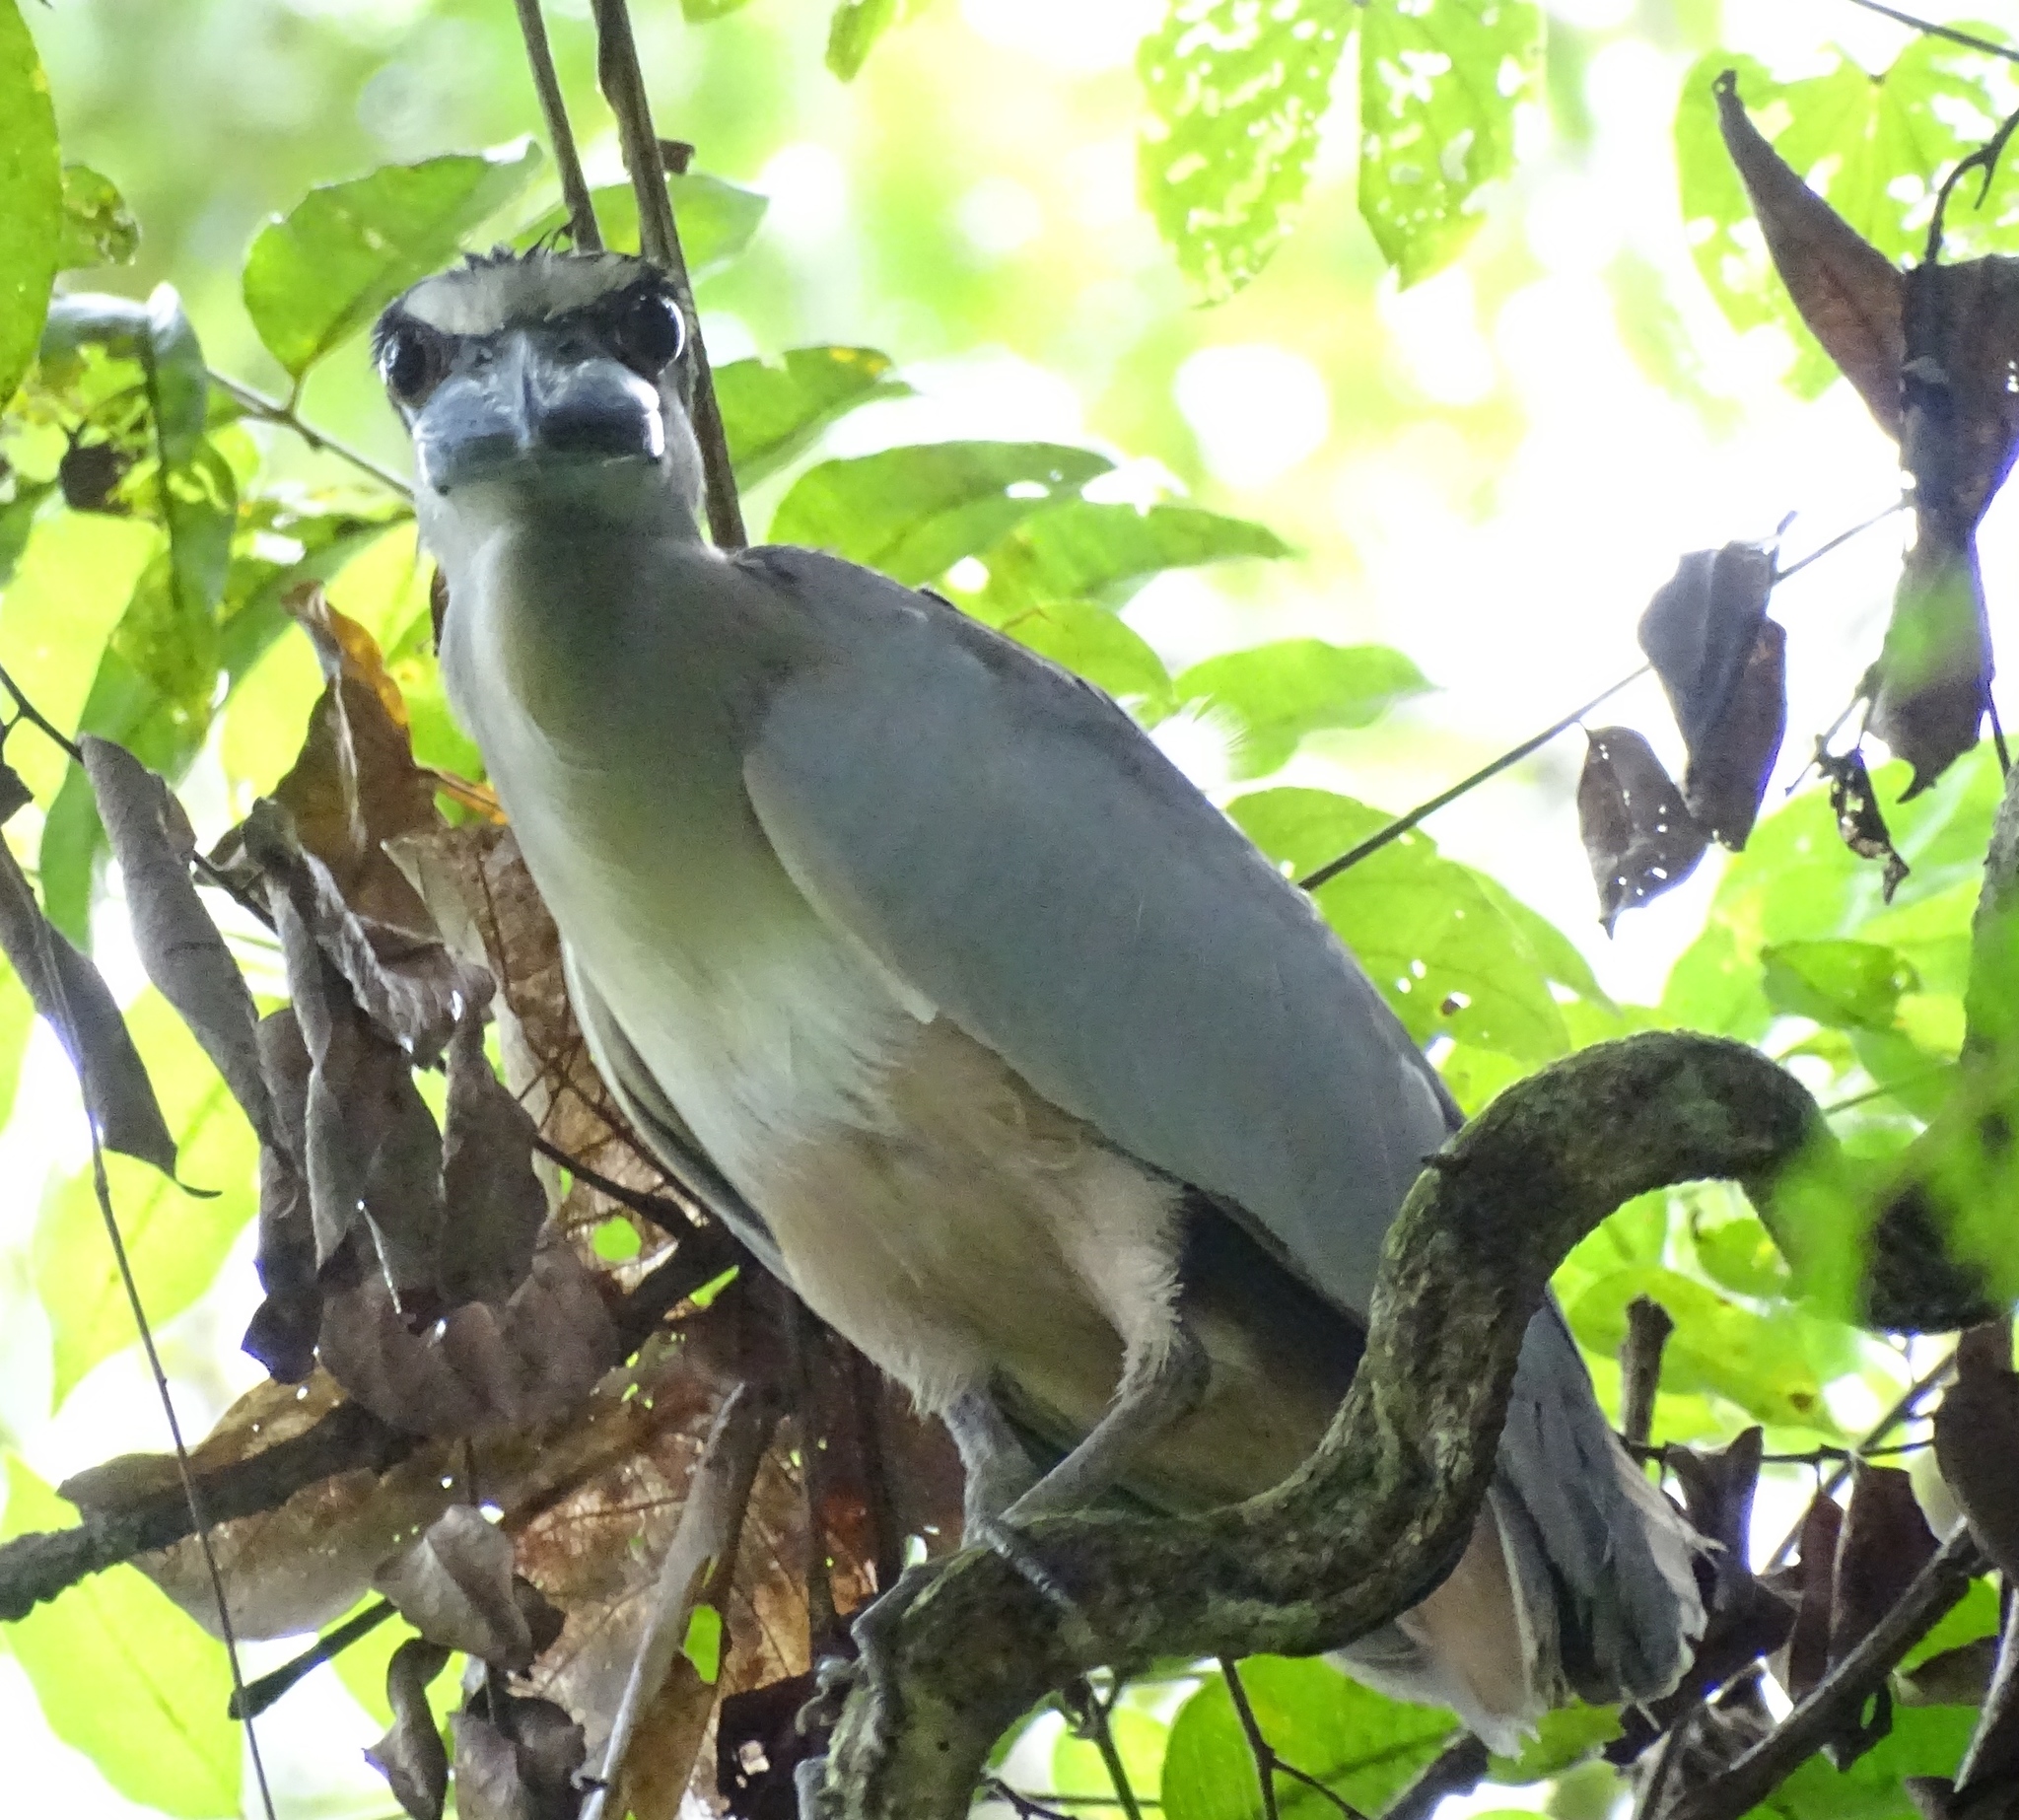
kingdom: Animalia
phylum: Chordata
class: Aves
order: Pelecaniformes
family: Ardeidae
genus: Cochlearius
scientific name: Cochlearius cochlearius
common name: Boat-billed heron
